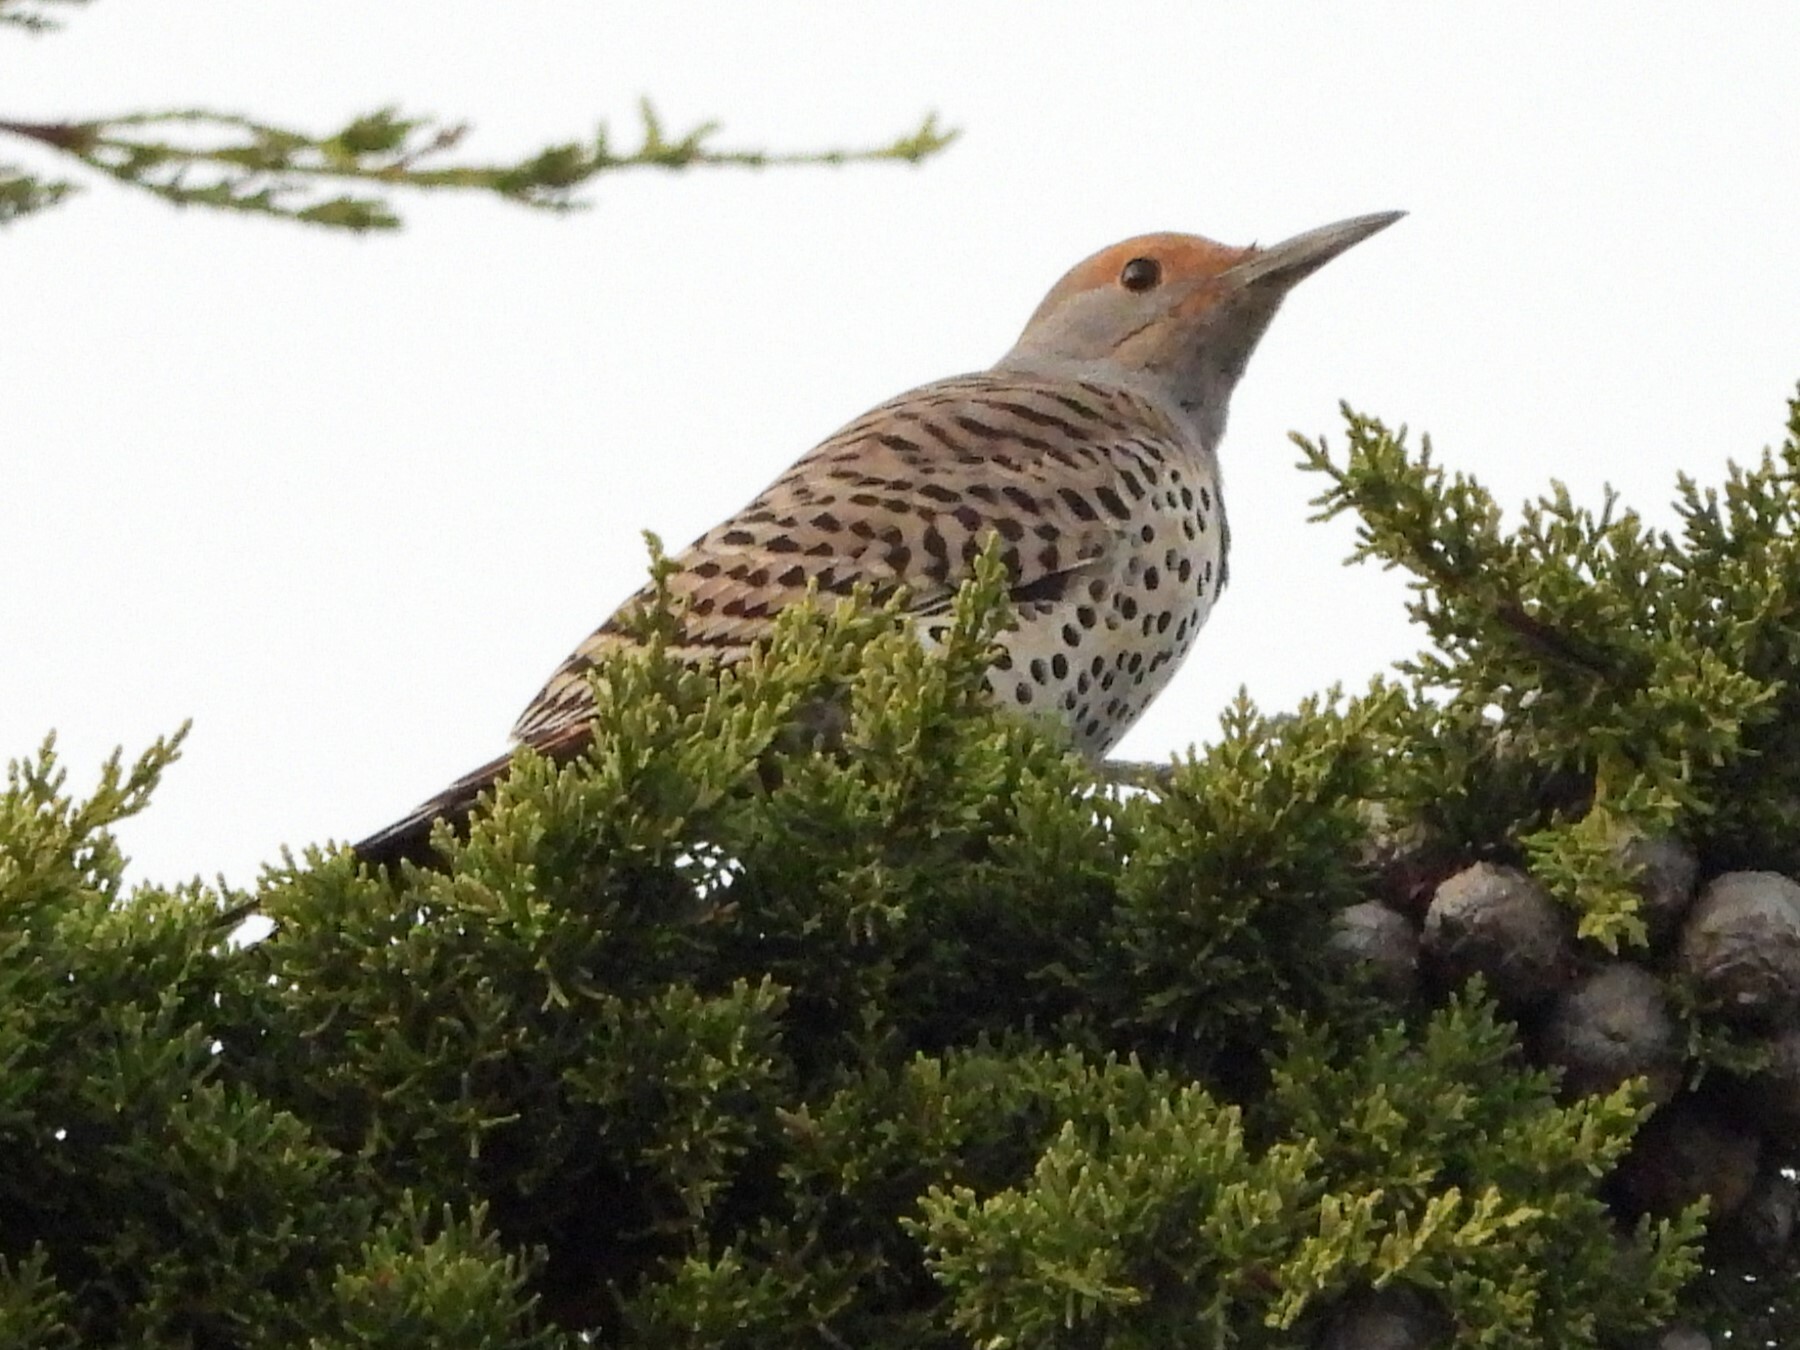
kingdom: Animalia
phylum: Chordata
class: Aves
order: Piciformes
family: Picidae
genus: Colaptes
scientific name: Colaptes auratus
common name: Northern flicker
